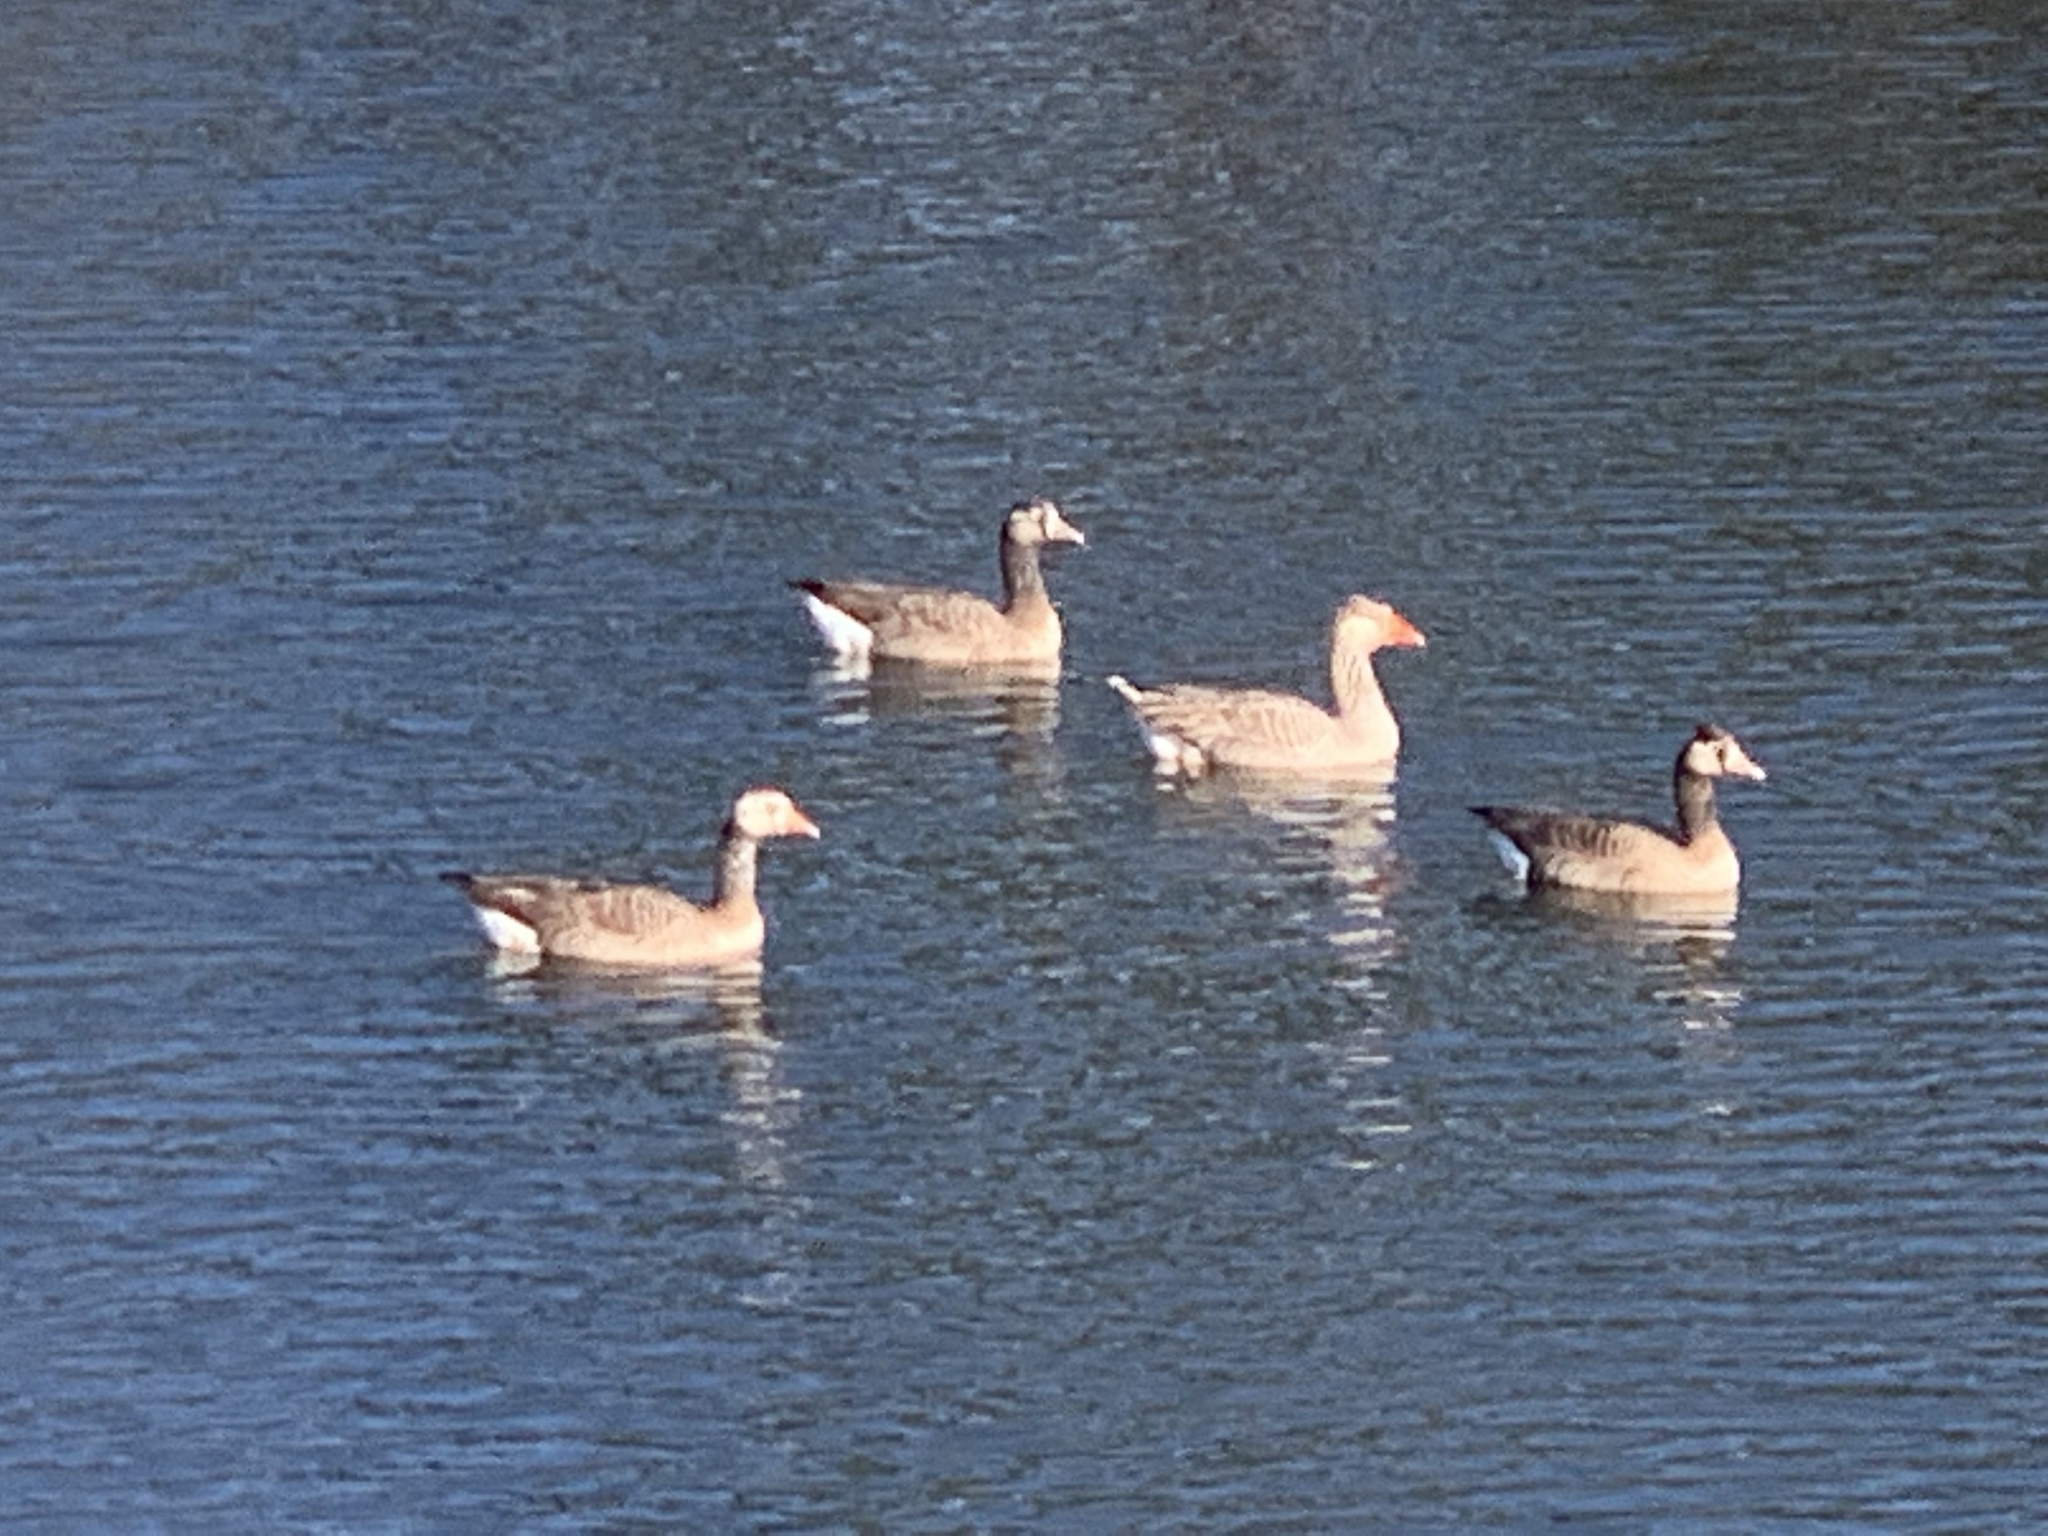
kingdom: Animalia
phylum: Chordata
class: Aves
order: Anseriformes
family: Anatidae
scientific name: Anatidae
